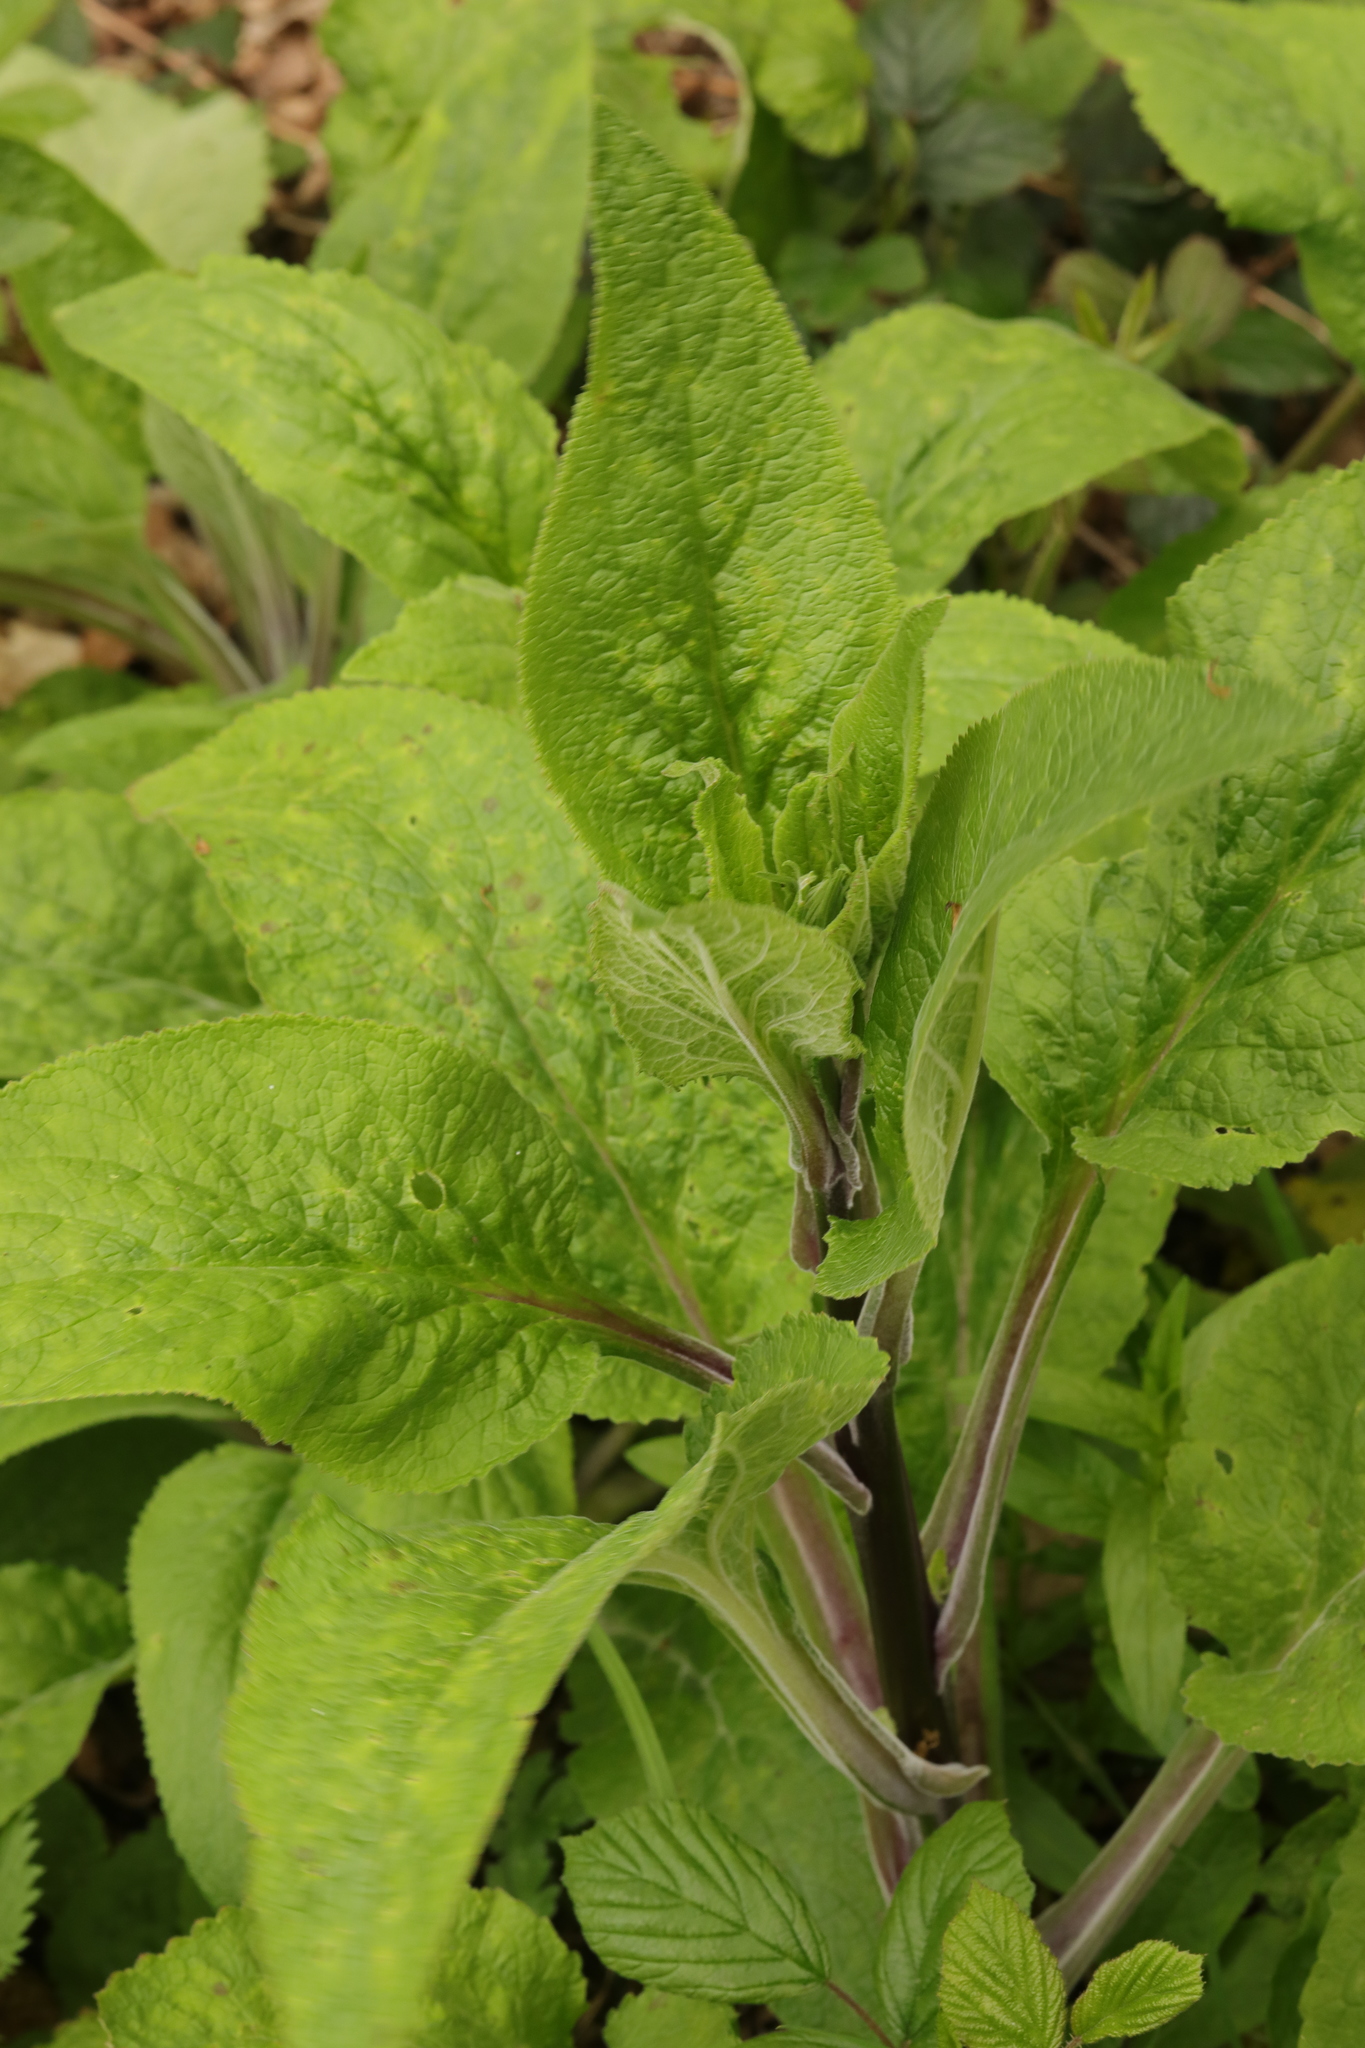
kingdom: Plantae
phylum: Tracheophyta
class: Magnoliopsida
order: Lamiales
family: Plantaginaceae
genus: Digitalis
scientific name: Digitalis purpurea
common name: Foxglove
